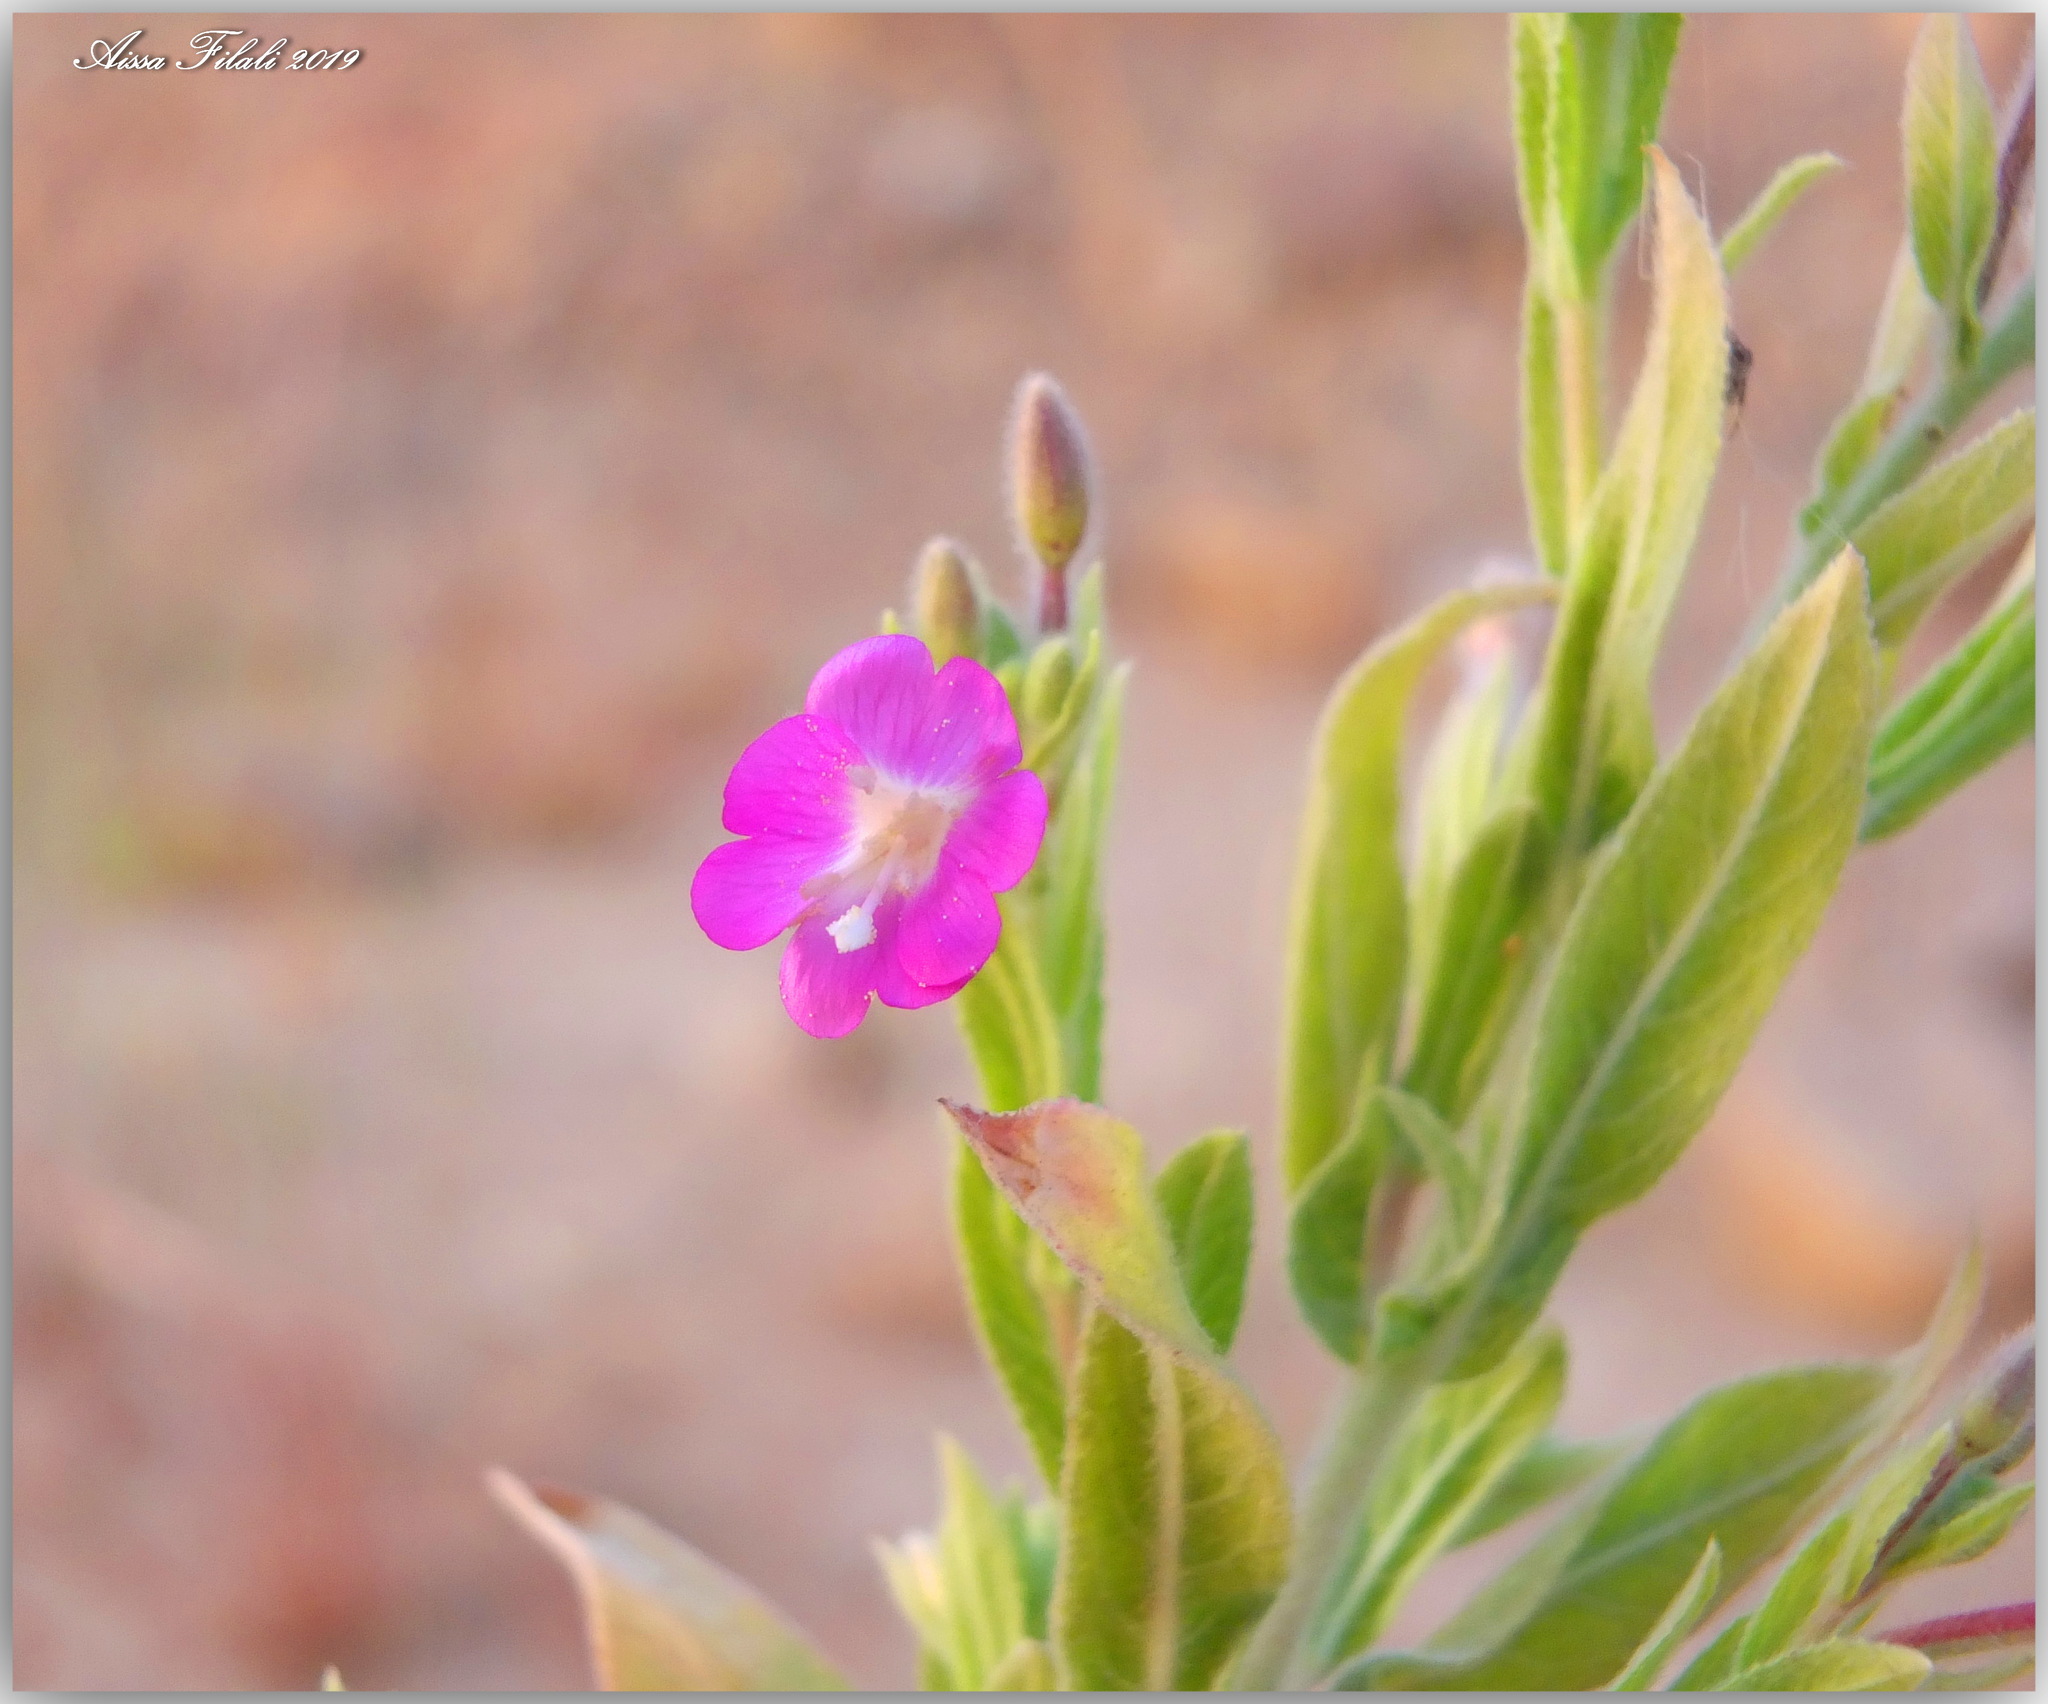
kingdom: Plantae
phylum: Tracheophyta
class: Magnoliopsida
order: Myrtales
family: Onagraceae
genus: Epilobium
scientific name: Epilobium hirsutum
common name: Great willowherb
